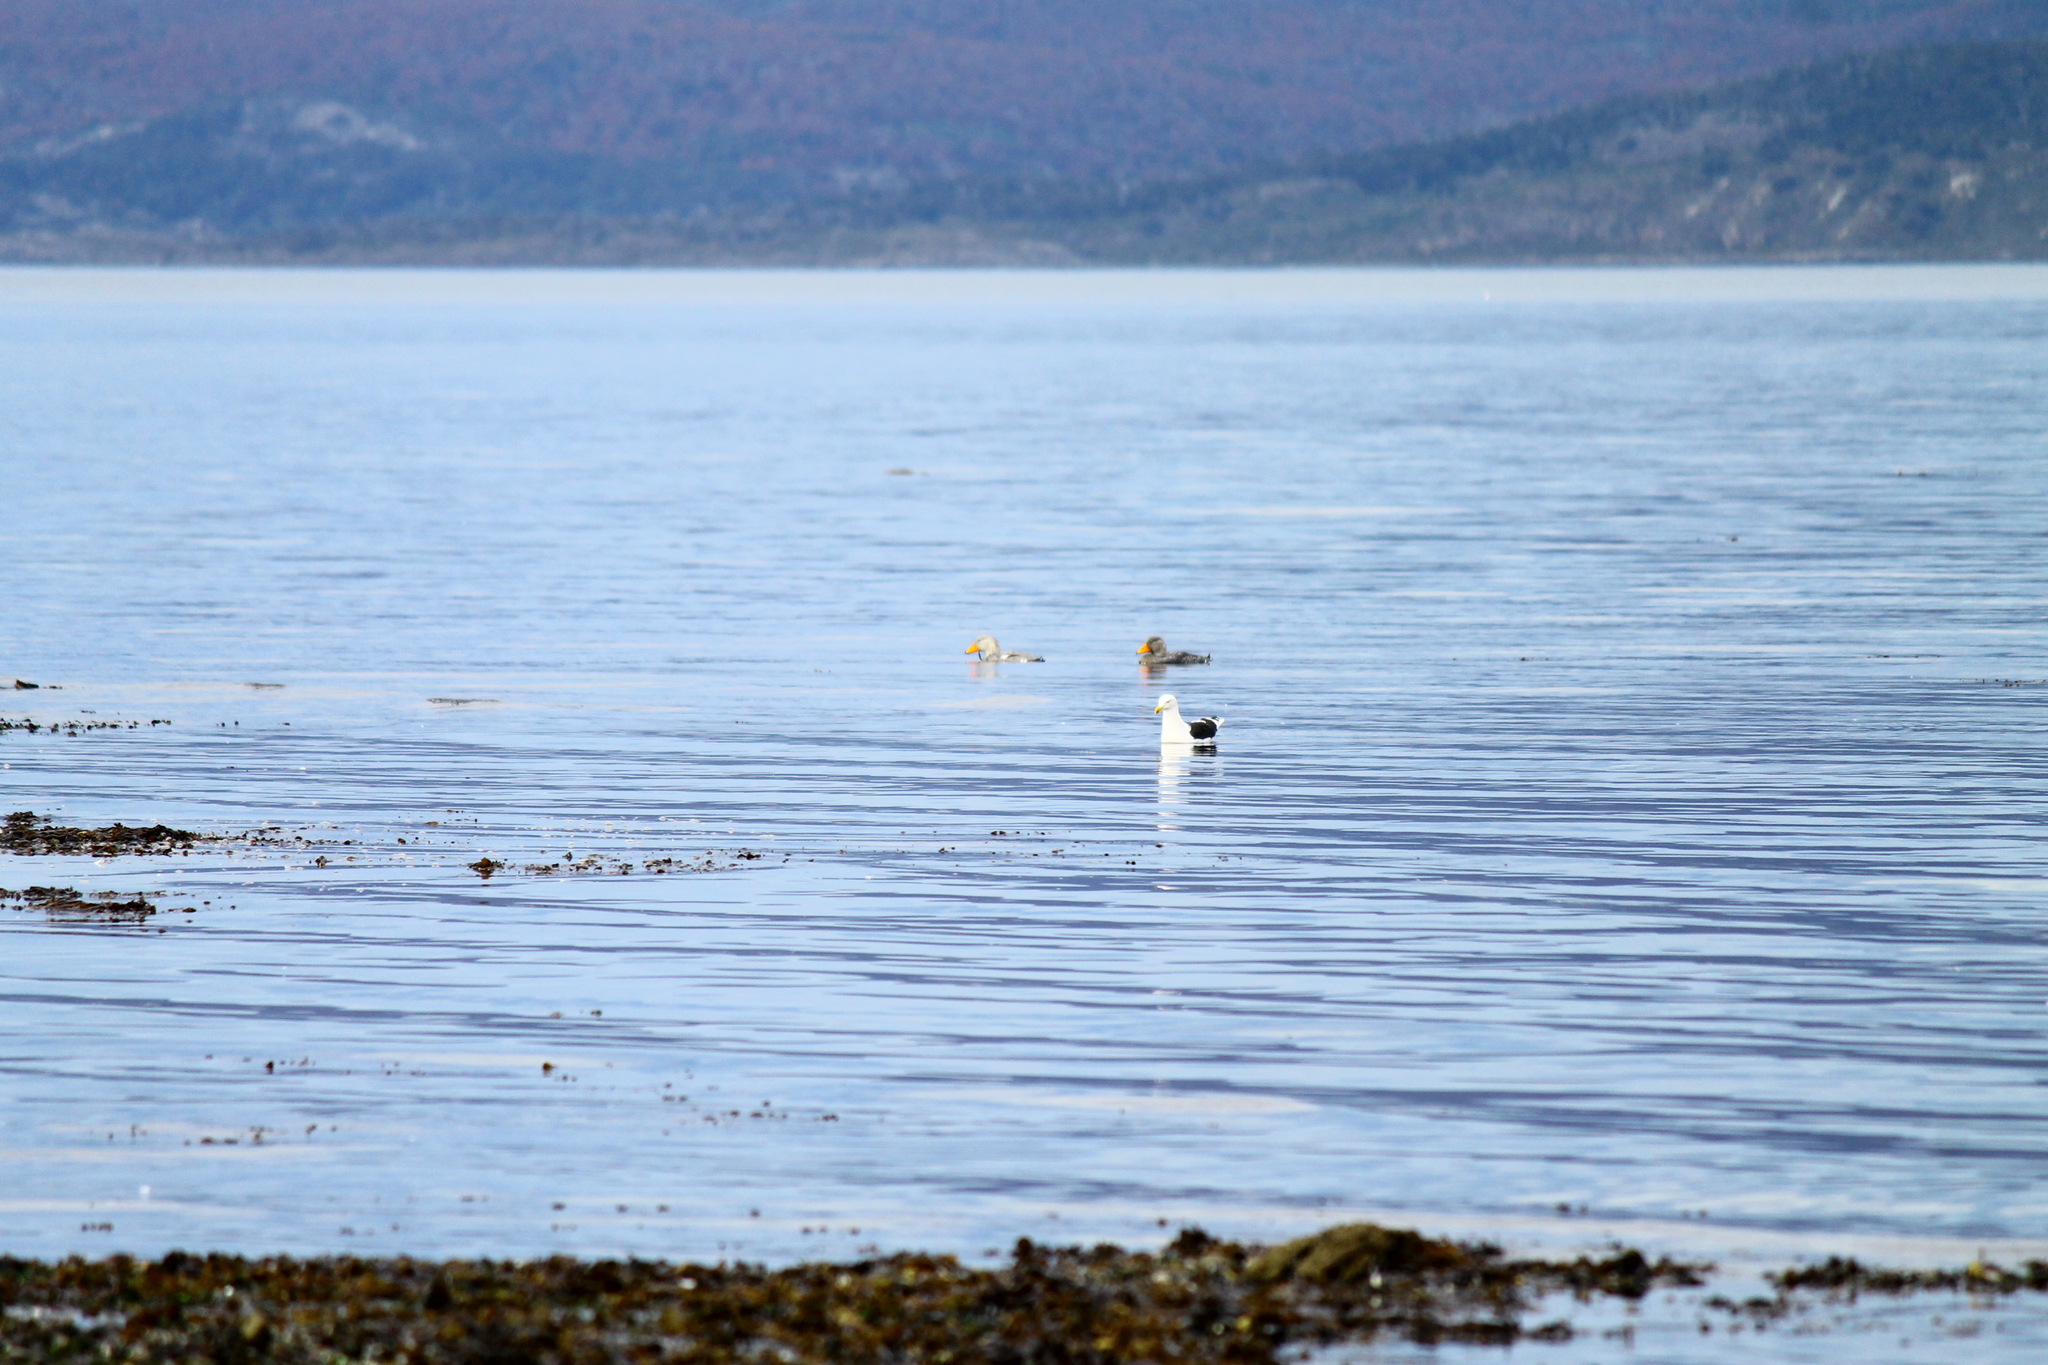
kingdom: Animalia
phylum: Chordata
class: Aves
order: Anseriformes
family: Anatidae
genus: Tachyeres
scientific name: Tachyeres pteneres
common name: Fuegian steamer duck
